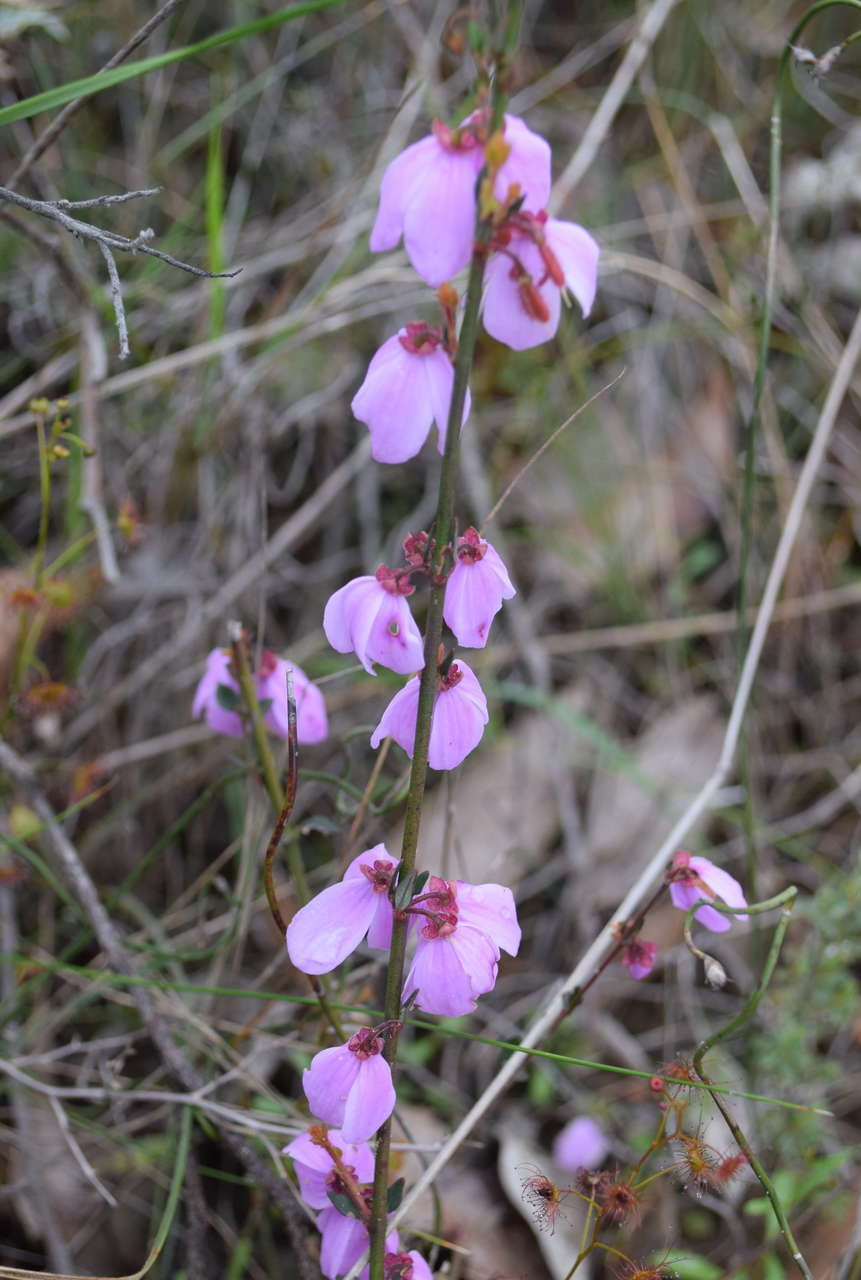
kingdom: Plantae
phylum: Tracheophyta
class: Magnoliopsida
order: Oxalidales
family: Elaeocarpaceae
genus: Tetratheca
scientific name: Tetratheca ciliata
